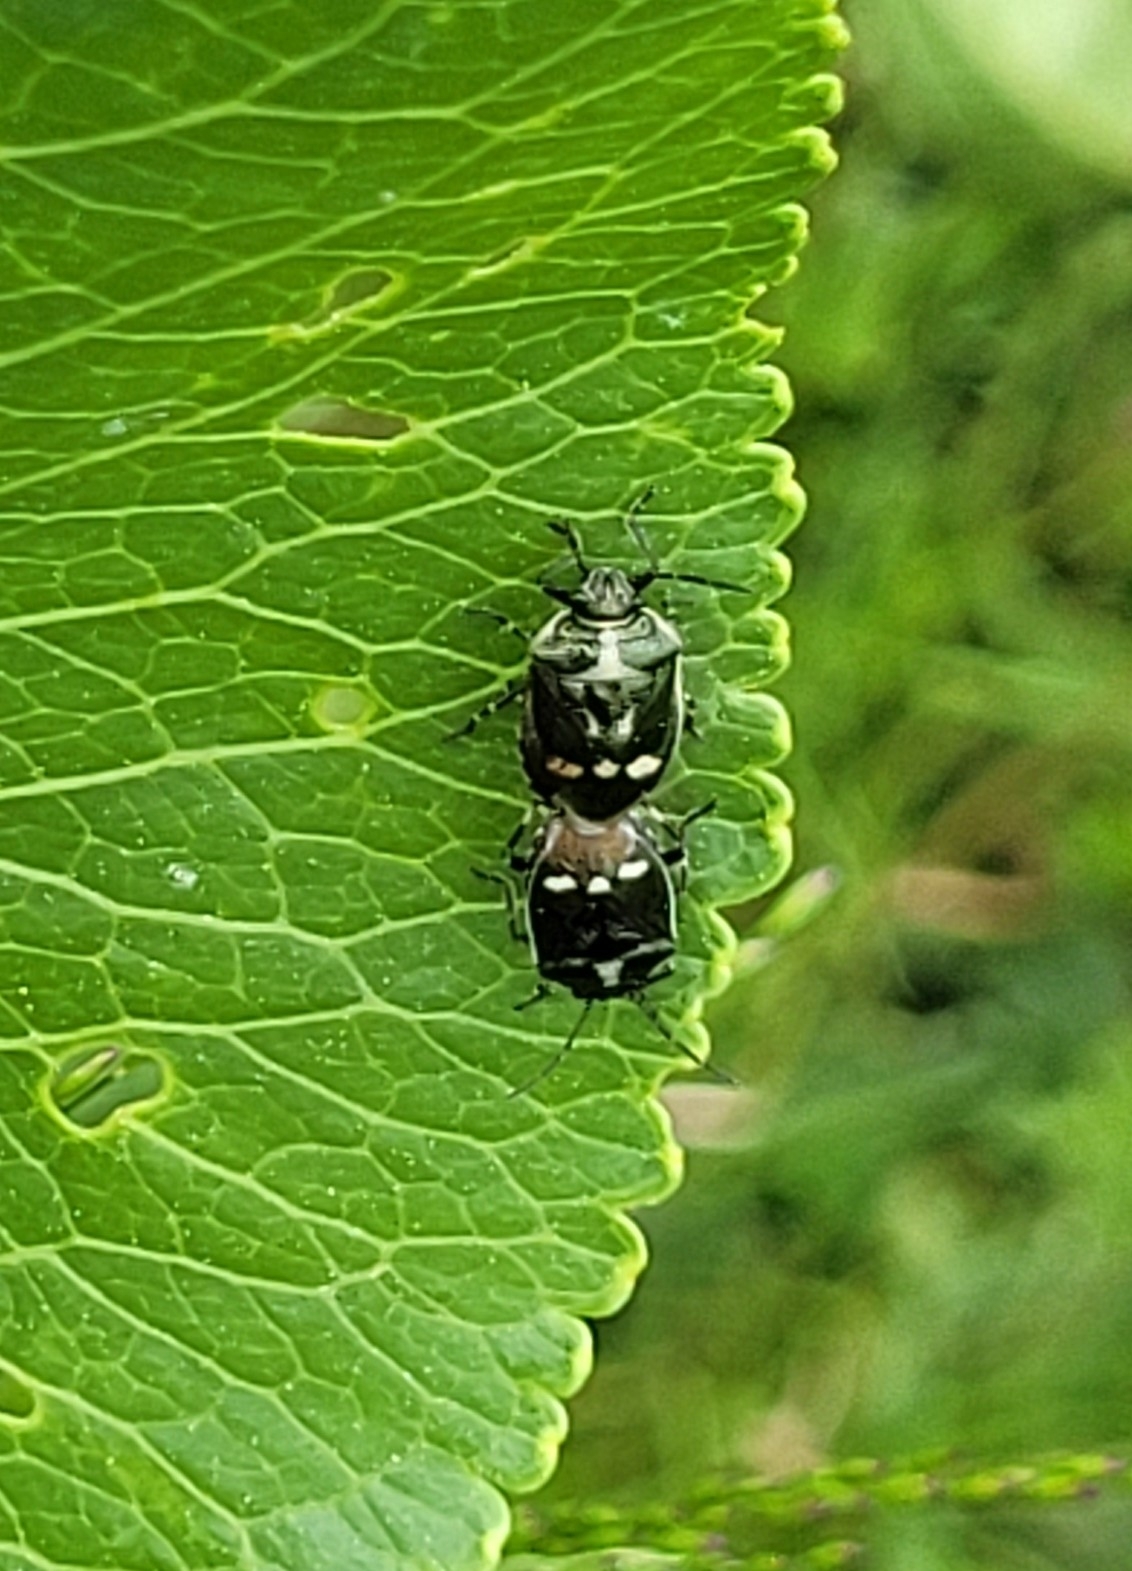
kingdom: Animalia
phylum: Arthropoda
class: Insecta
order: Hemiptera
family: Pentatomidae
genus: Eurydema
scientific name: Eurydema oleracea
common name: Cabbage bug
